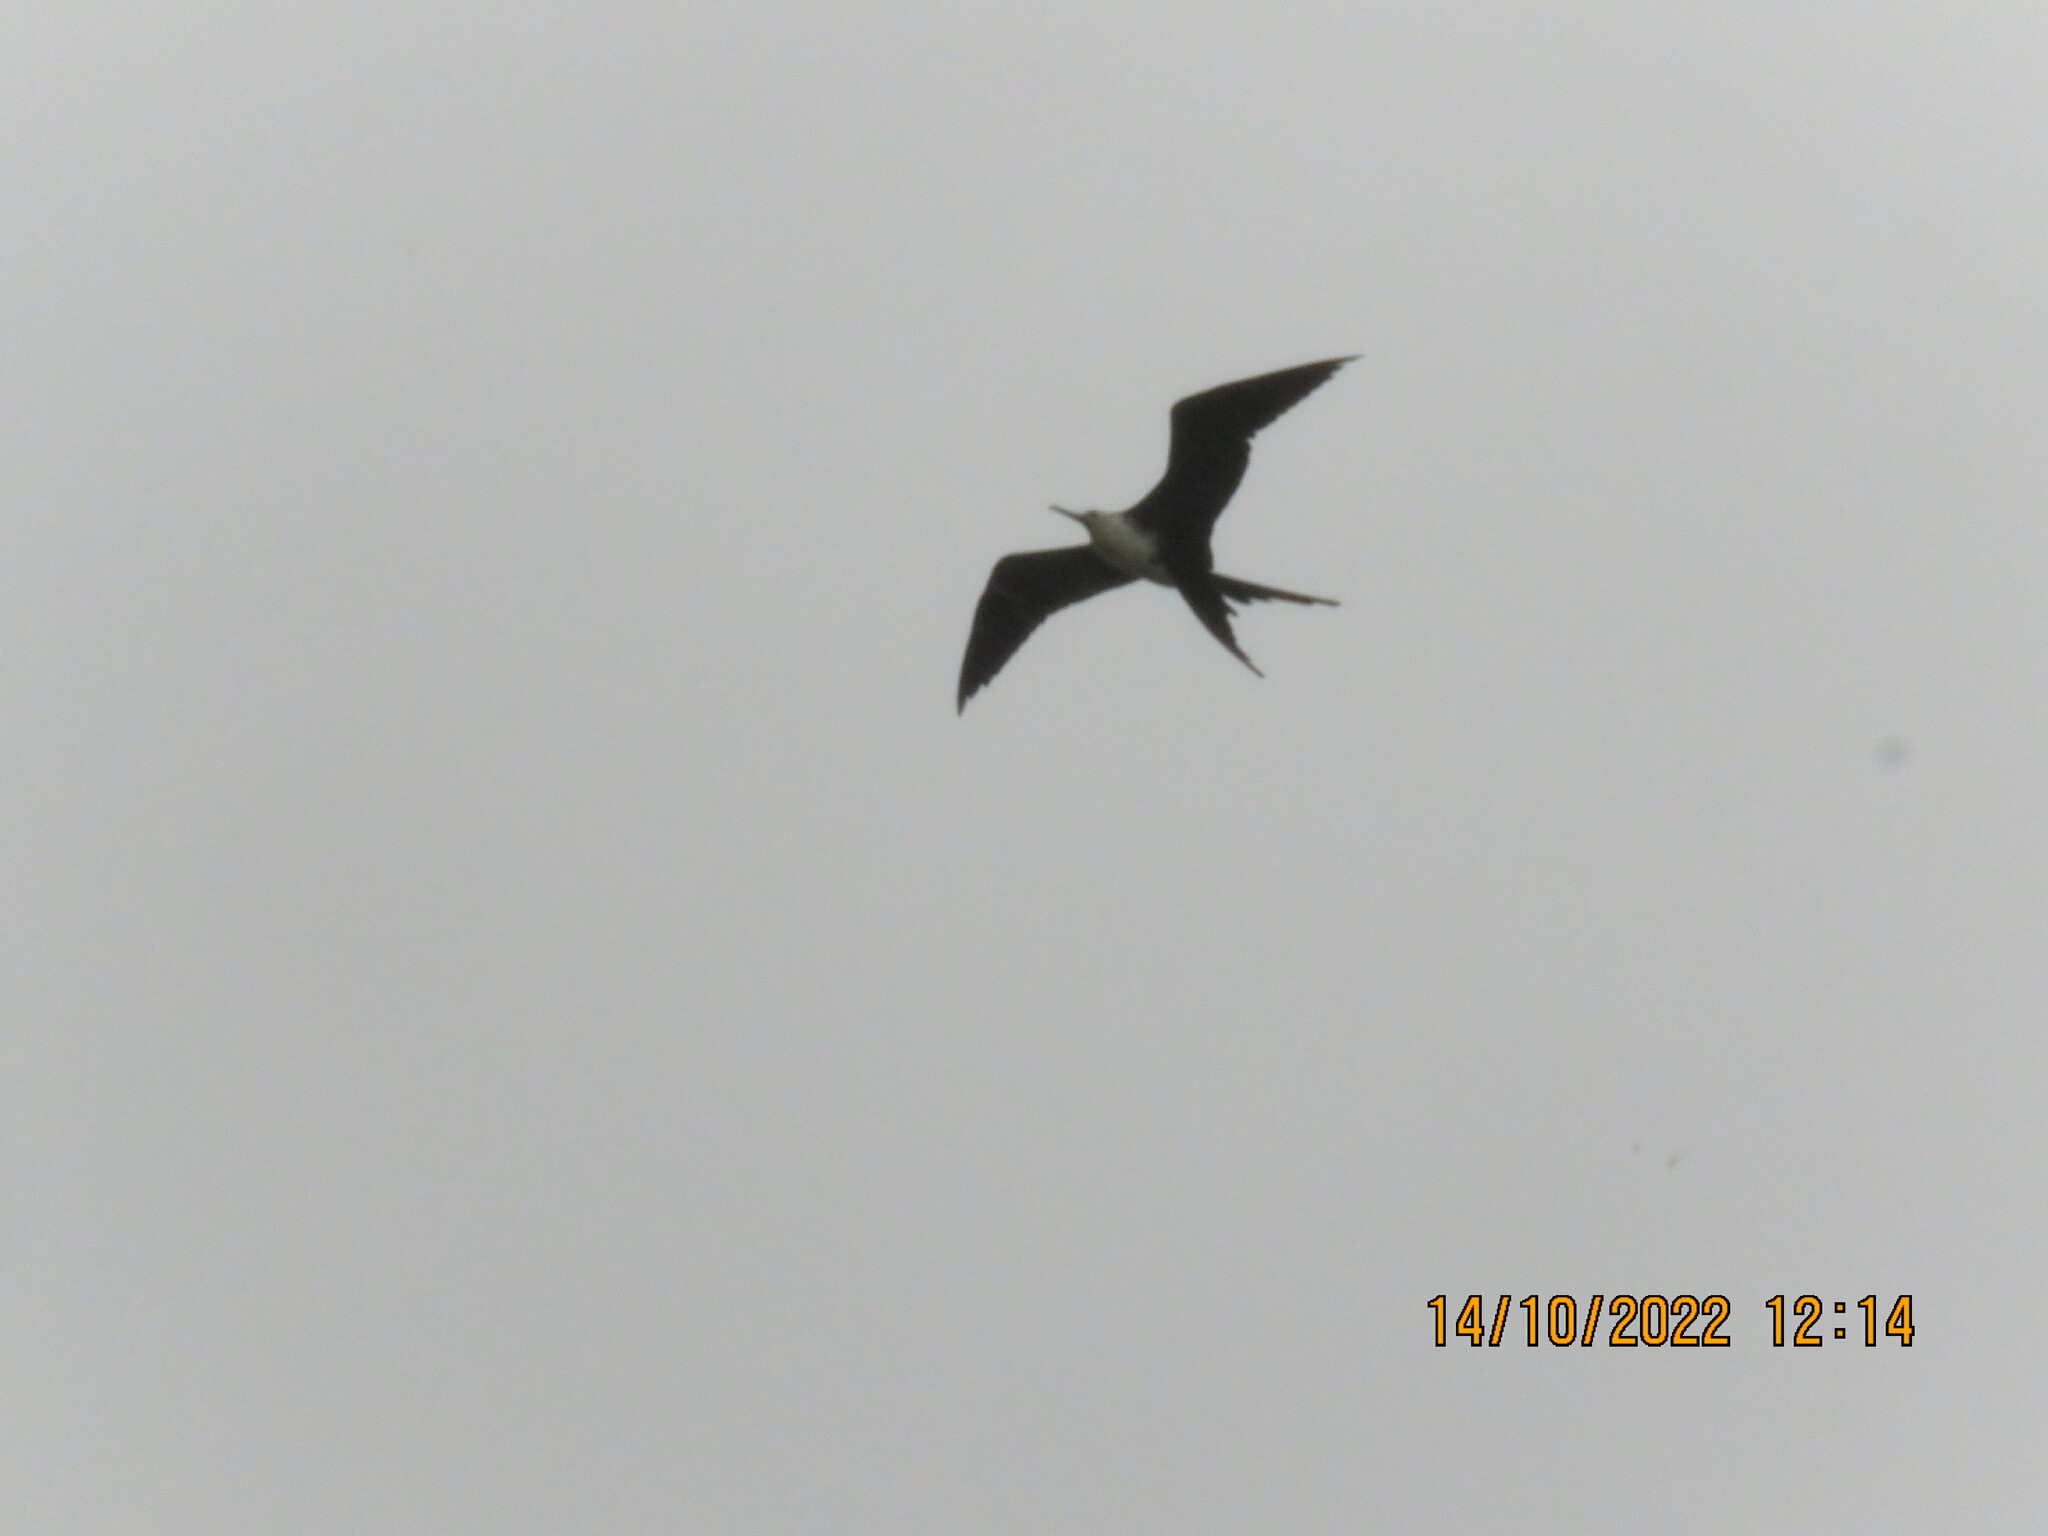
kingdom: Animalia
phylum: Chordata
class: Aves
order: Suliformes
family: Fregatidae
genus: Fregata
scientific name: Fregata magnificens
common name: Magnificent frigatebird
